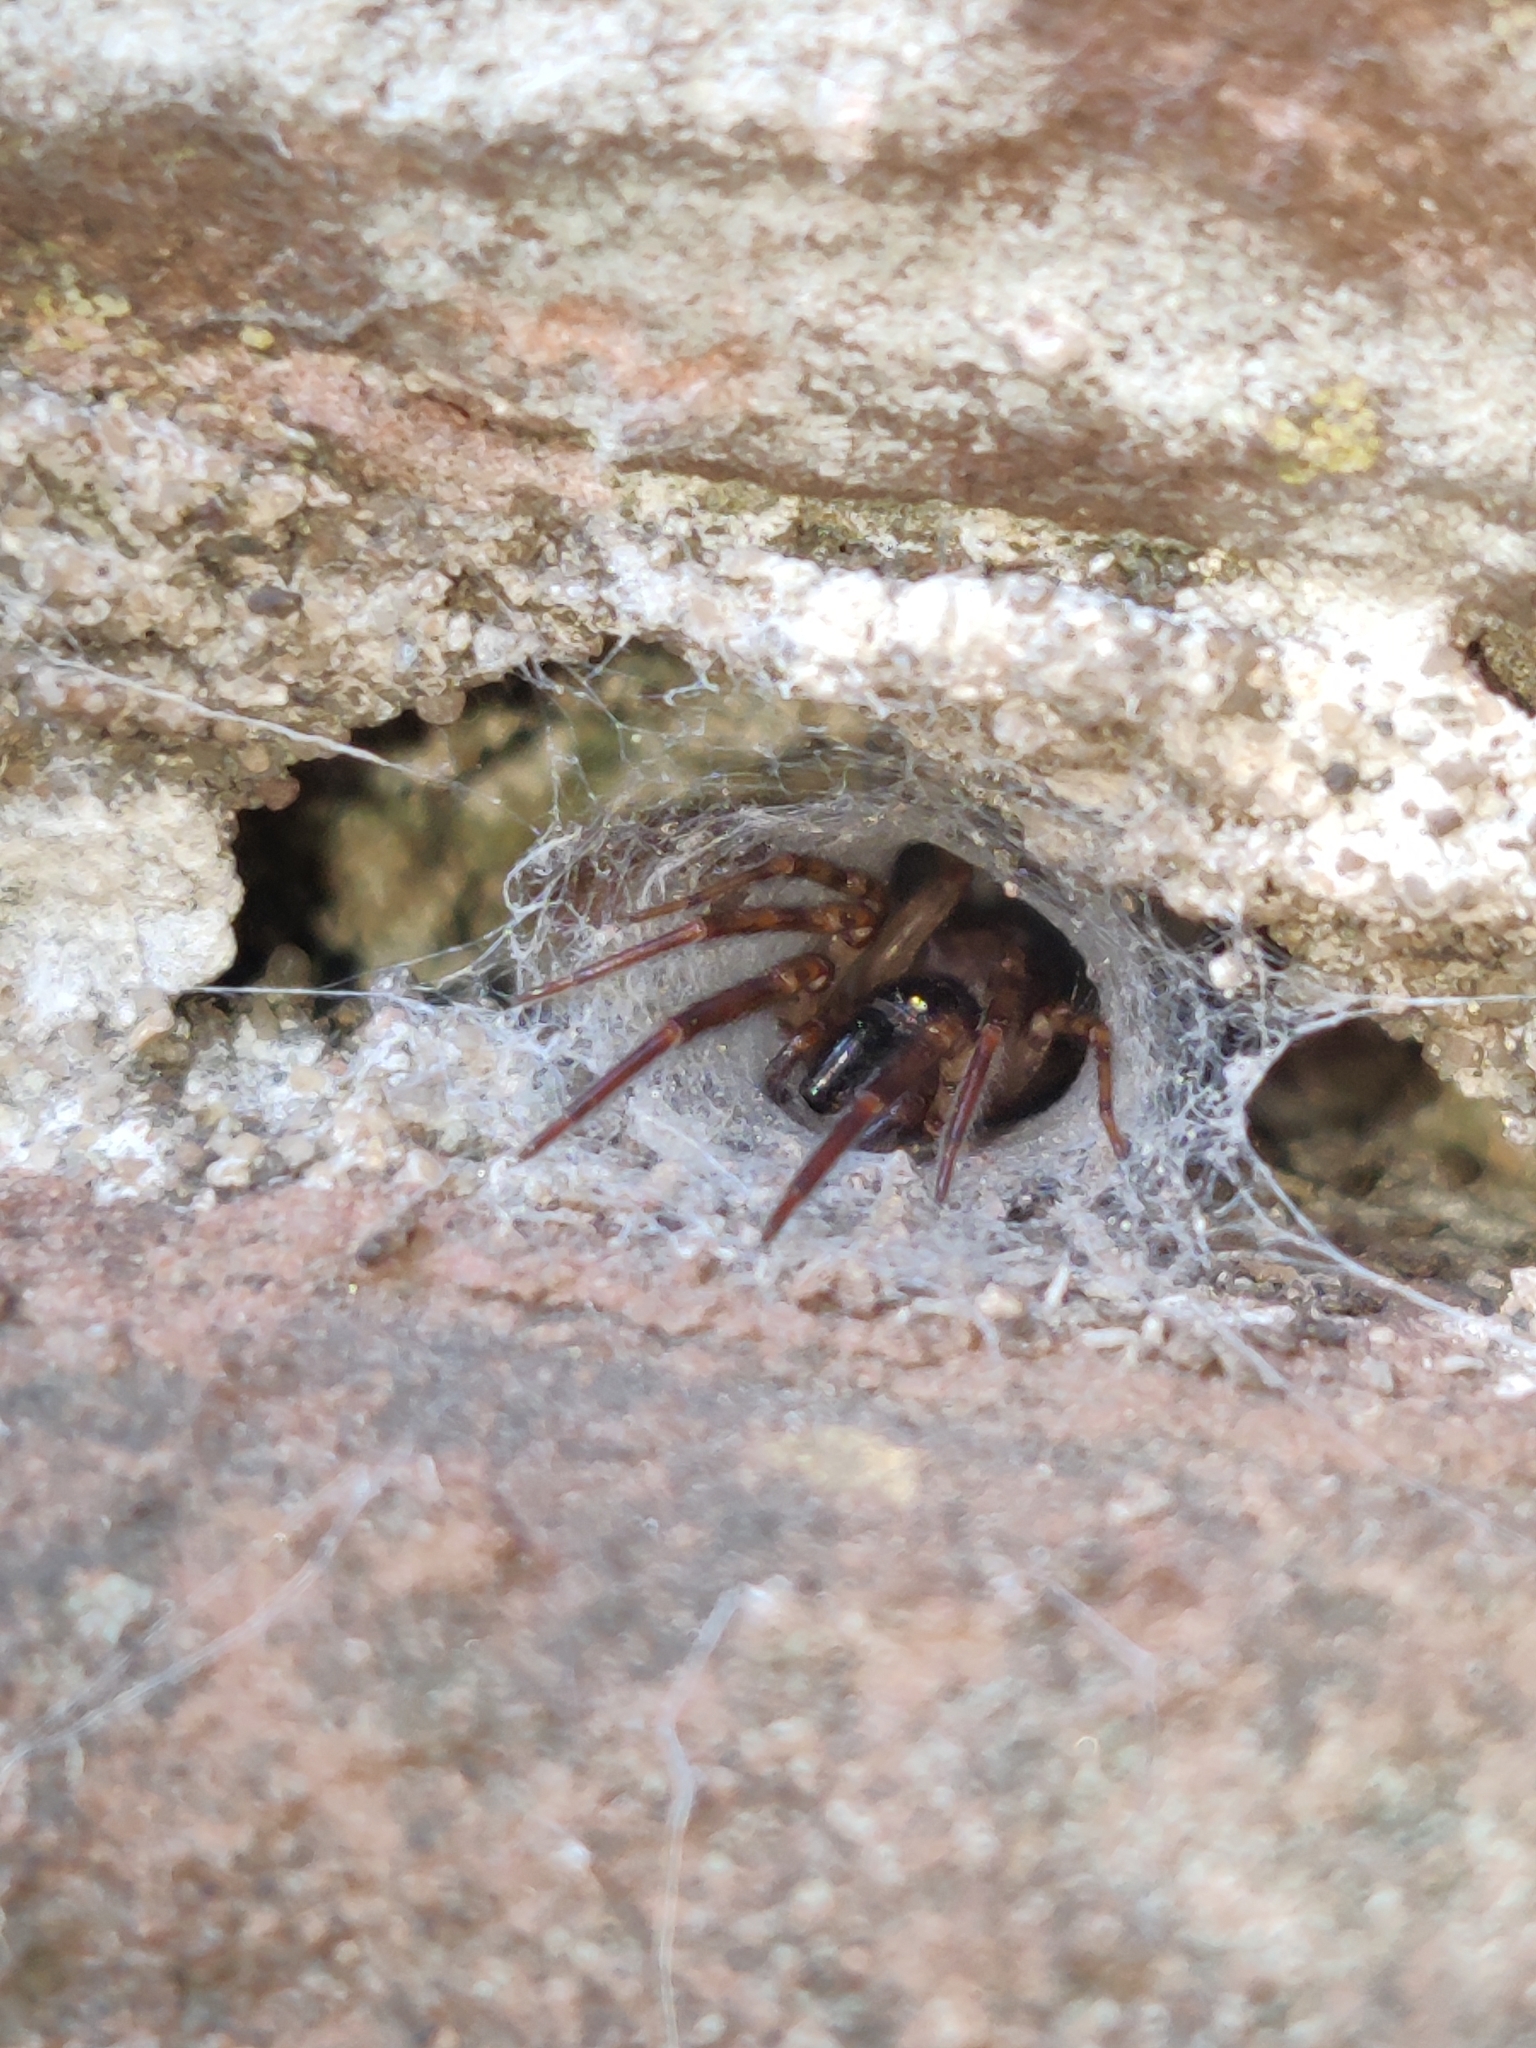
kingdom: Animalia
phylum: Arthropoda
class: Arachnida
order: Araneae
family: Segestriidae
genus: Segestria
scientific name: Segestria senoculata
